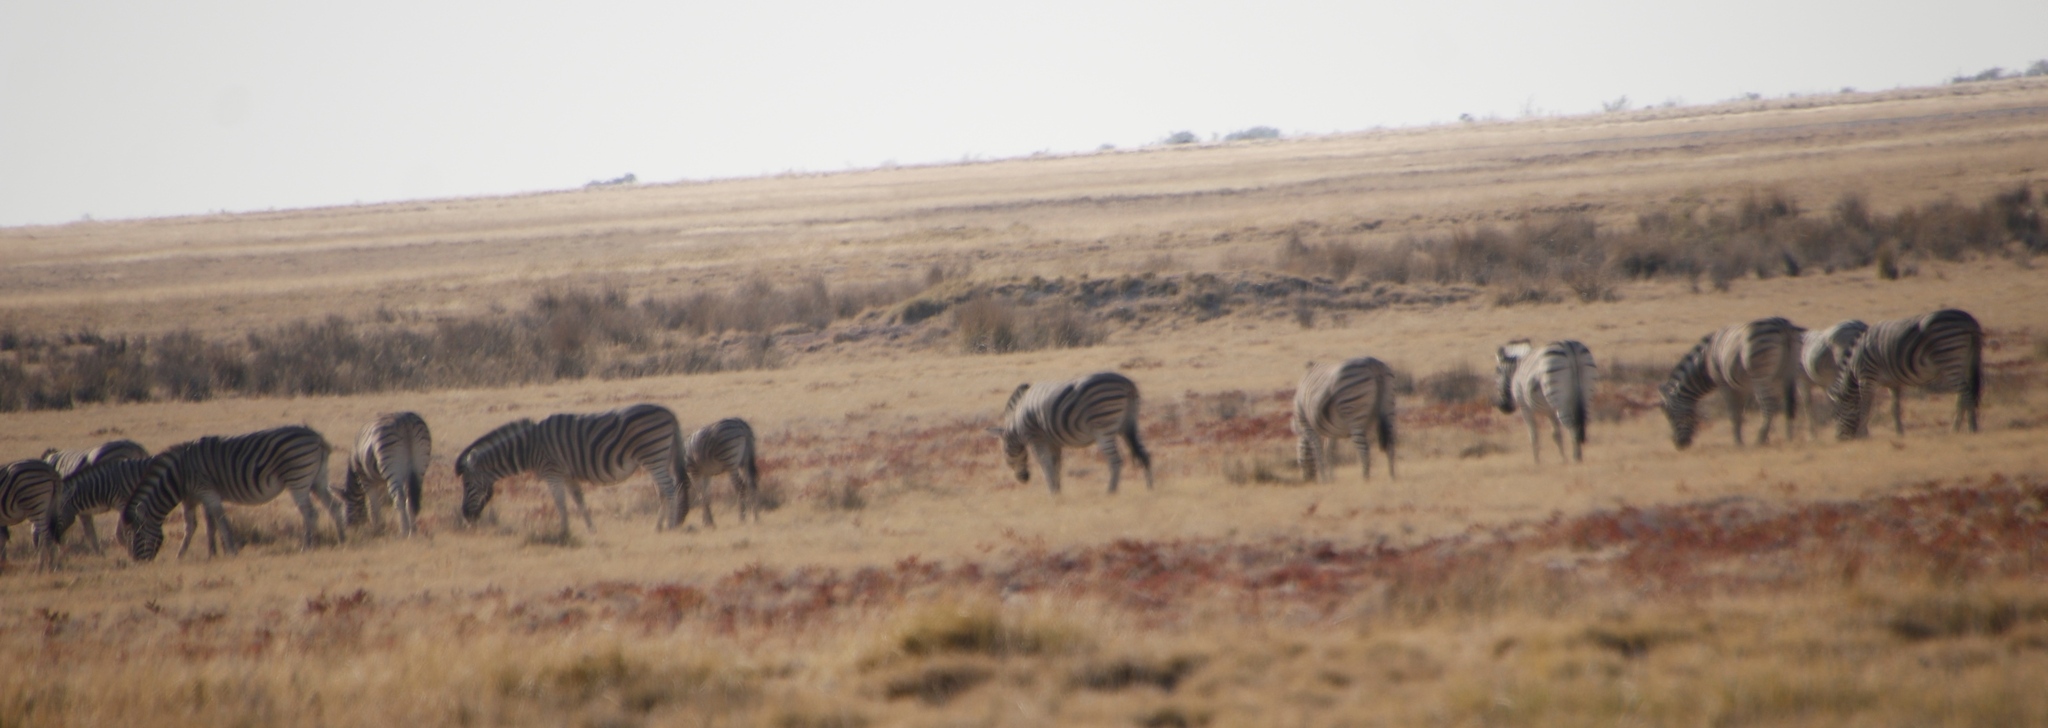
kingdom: Animalia
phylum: Chordata
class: Mammalia
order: Perissodactyla
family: Equidae
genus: Equus
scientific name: Equus quagga
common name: Plains zebra
